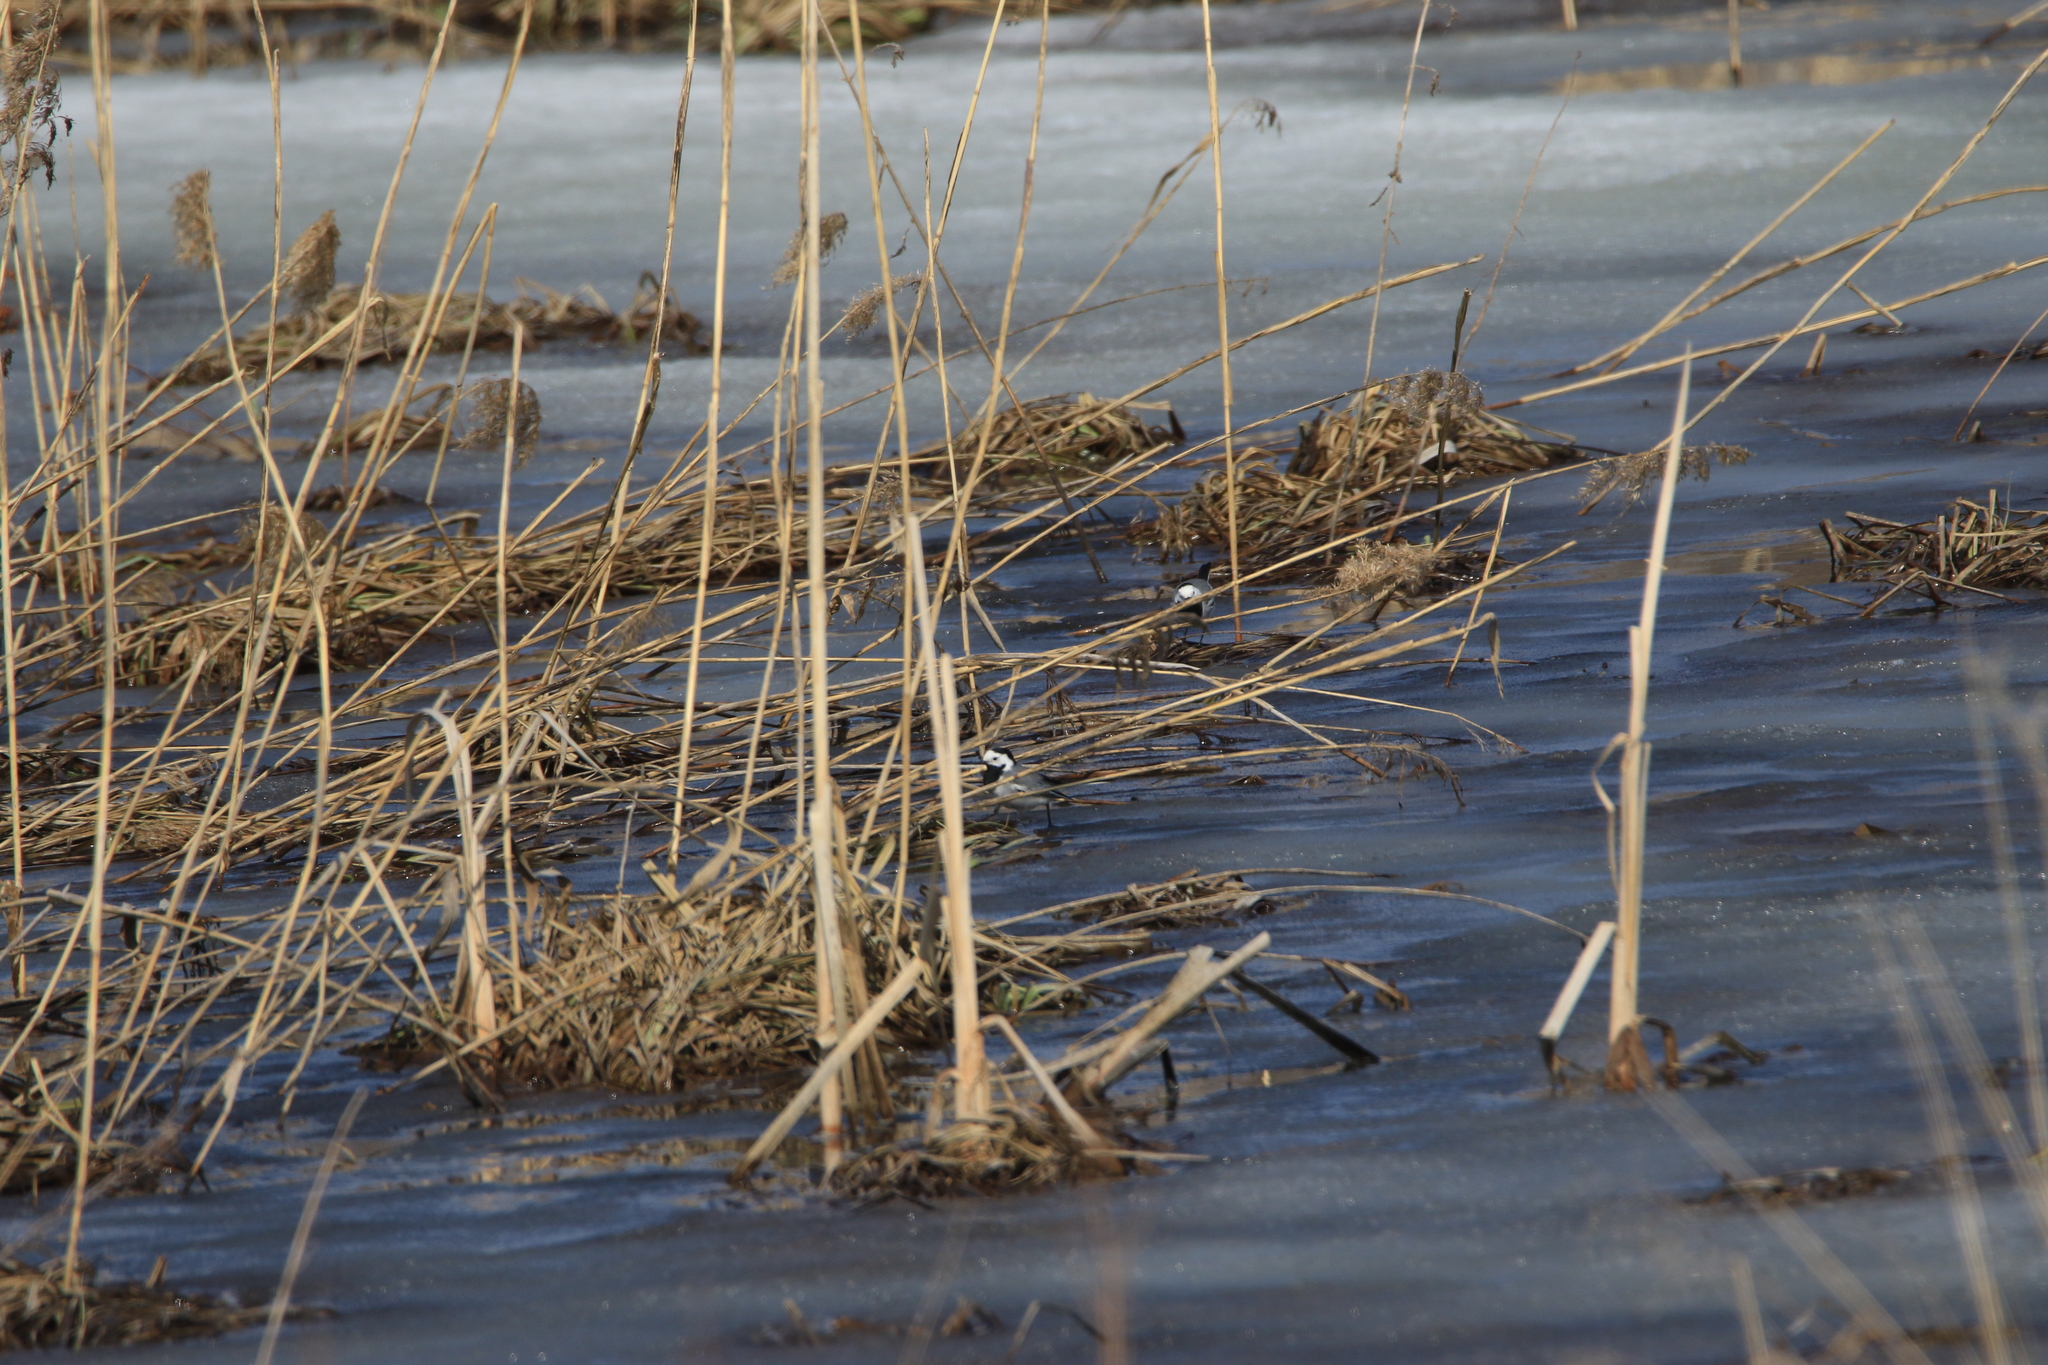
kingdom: Animalia
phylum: Chordata
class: Aves
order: Passeriformes
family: Motacillidae
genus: Motacilla
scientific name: Motacilla alba
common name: White wagtail
